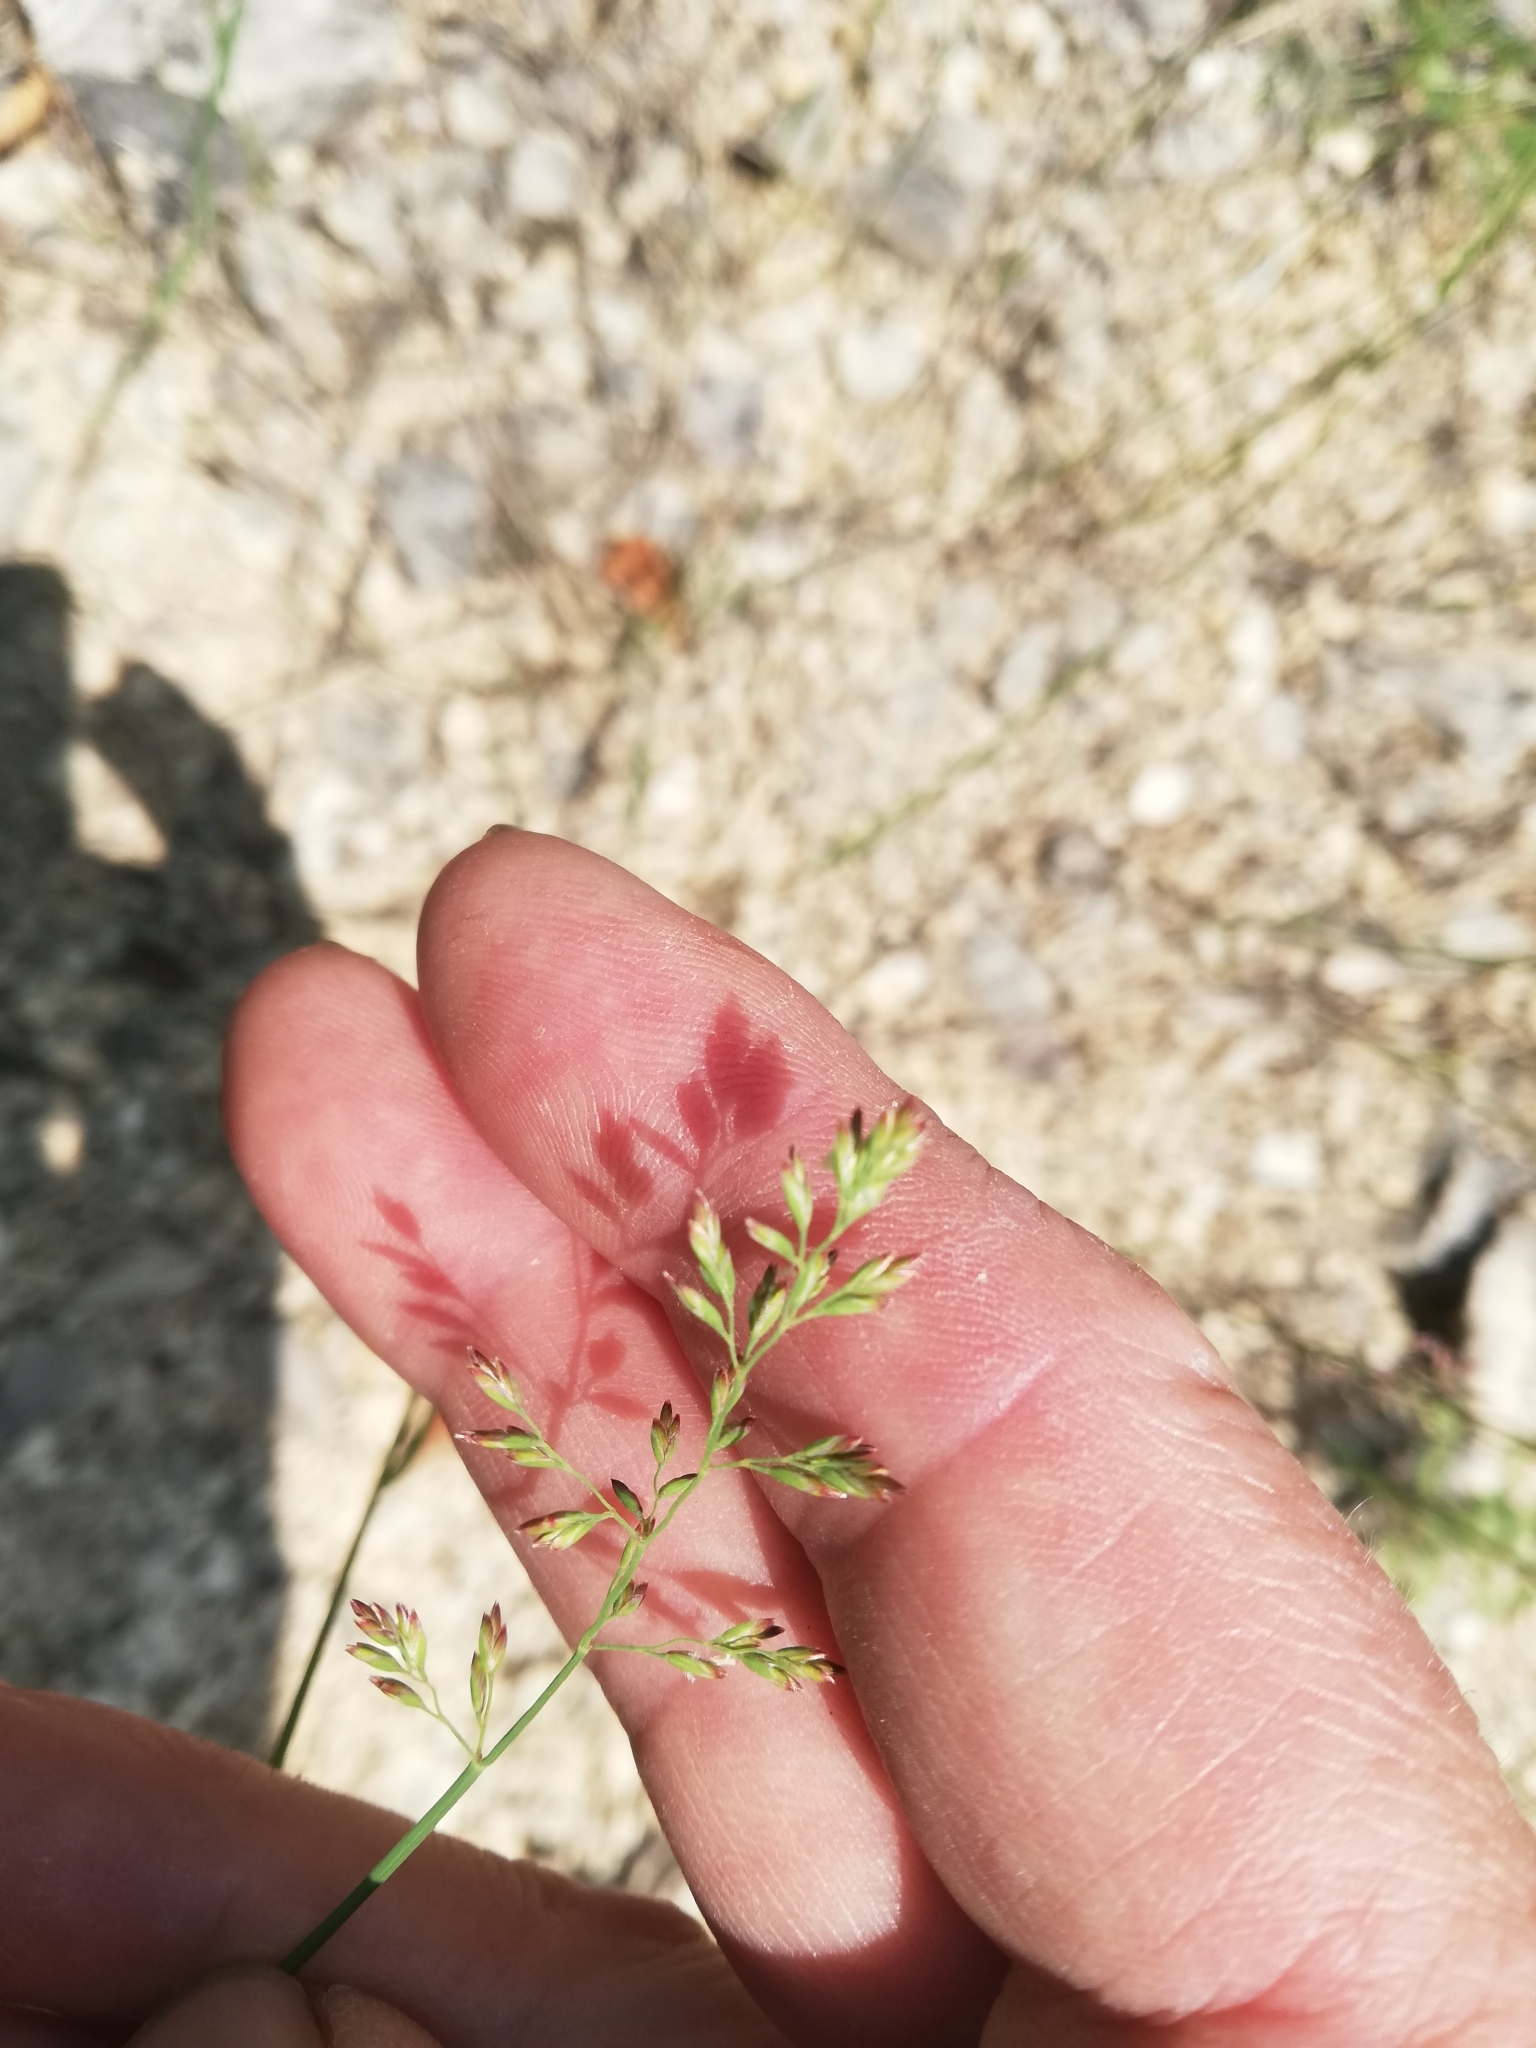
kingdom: Plantae
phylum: Tracheophyta
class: Liliopsida
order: Poales
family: Poaceae
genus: Poa
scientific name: Poa compressa
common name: Canada bluegrass
